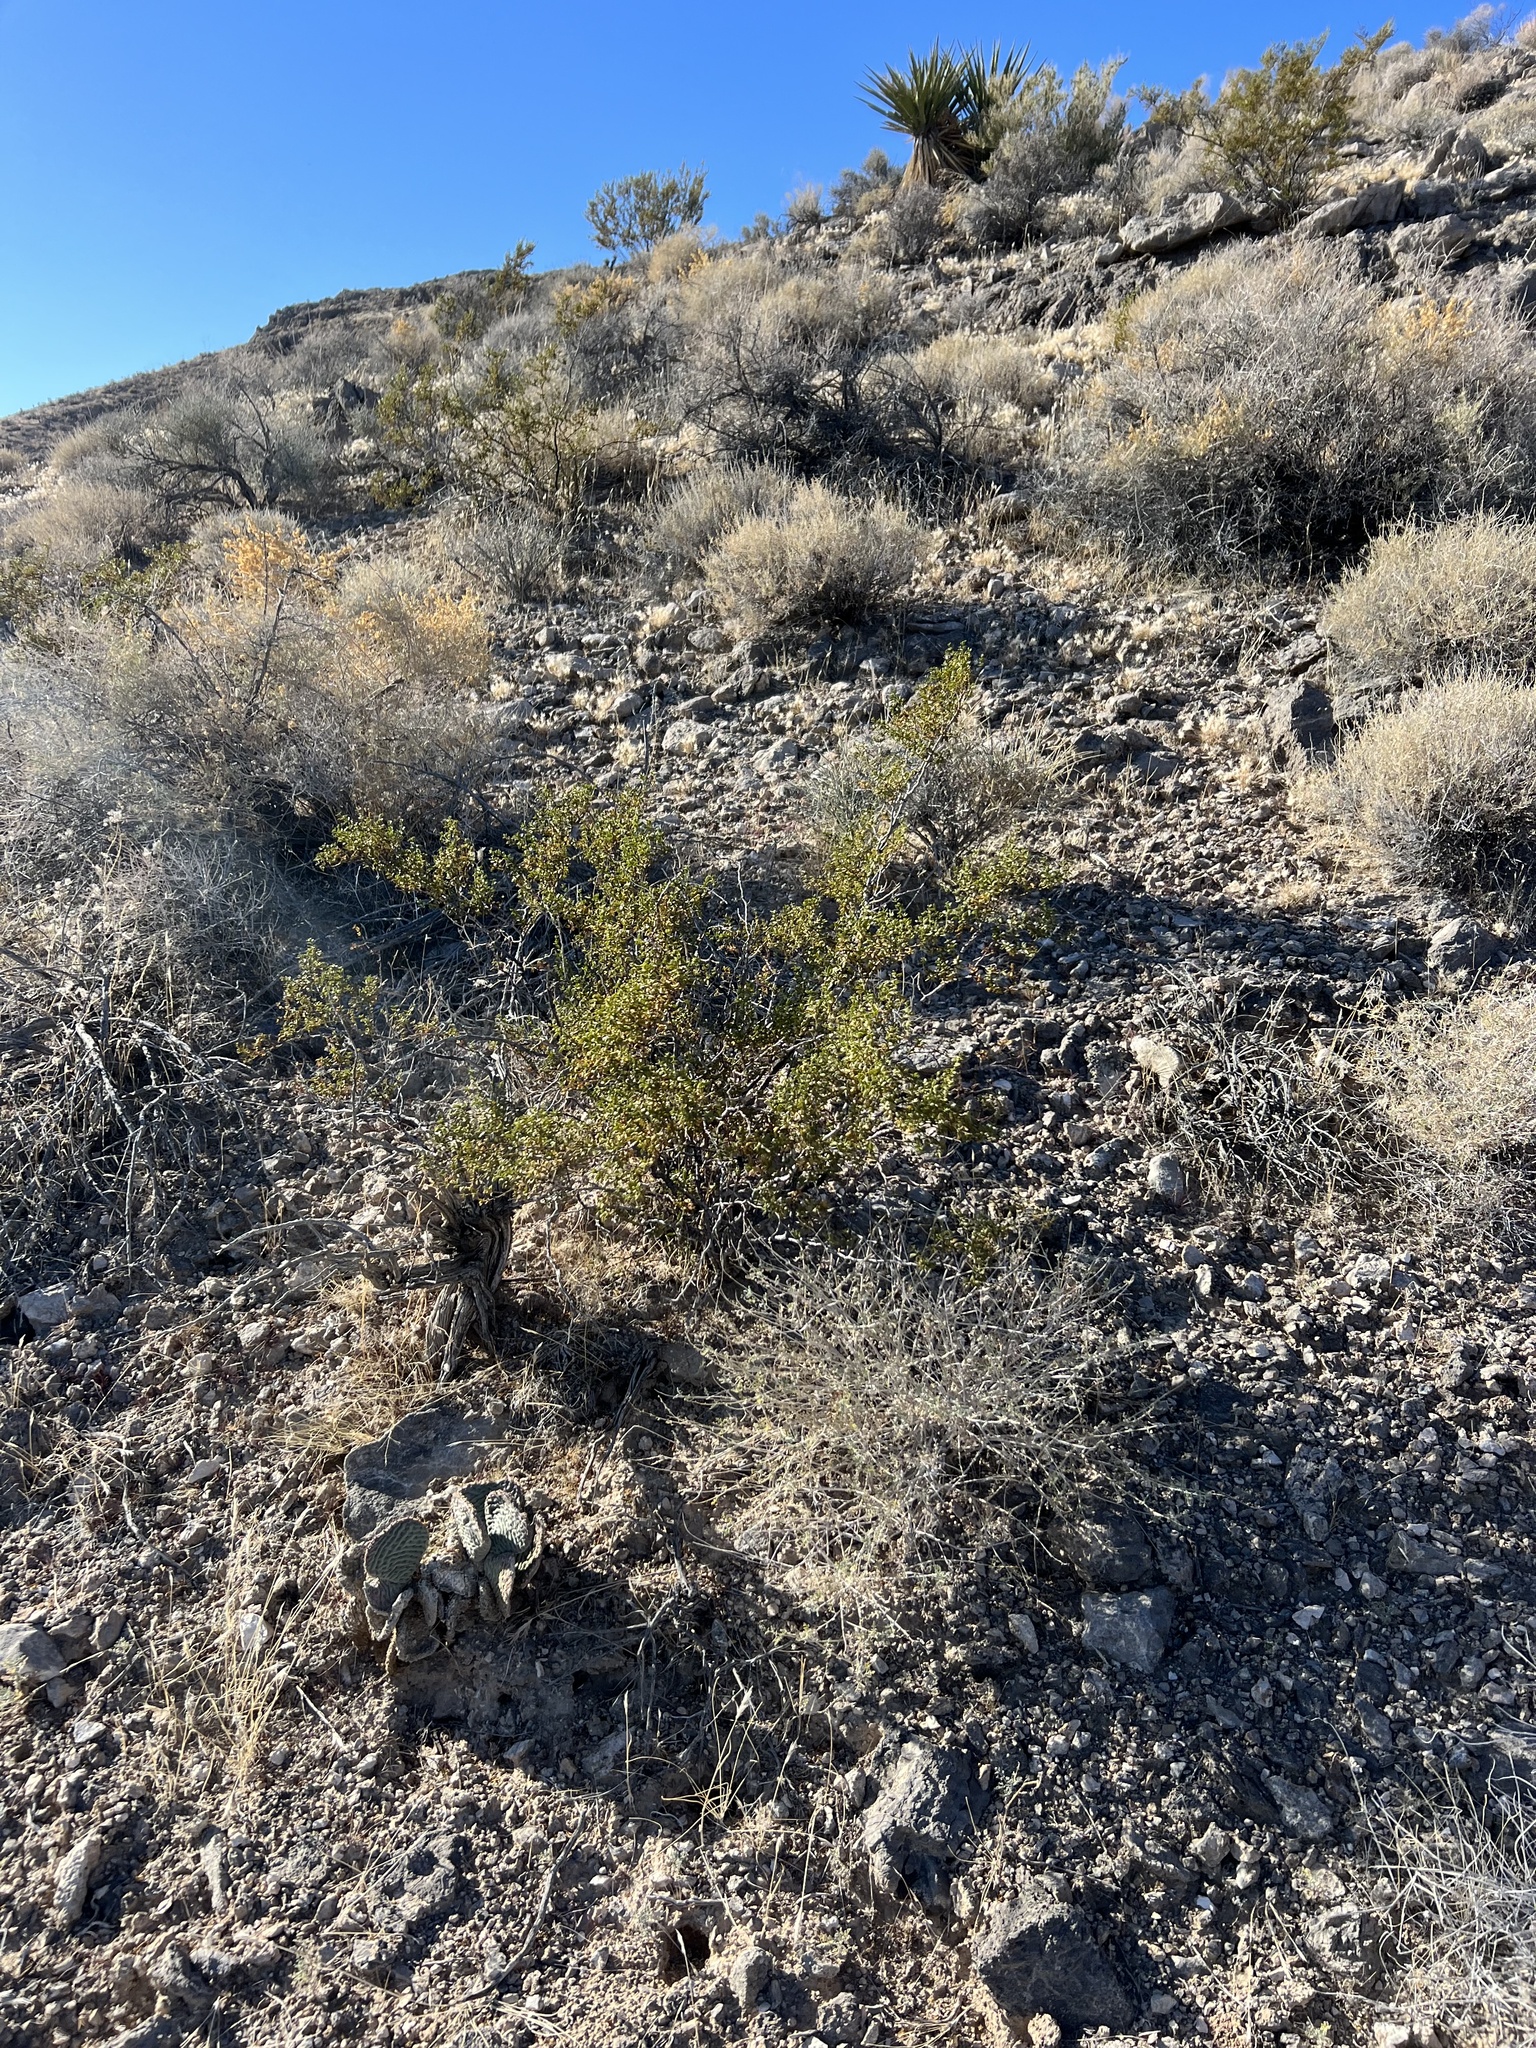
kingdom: Plantae
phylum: Tracheophyta
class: Magnoliopsida
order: Zygophyllales
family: Zygophyllaceae
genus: Larrea
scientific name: Larrea tridentata
